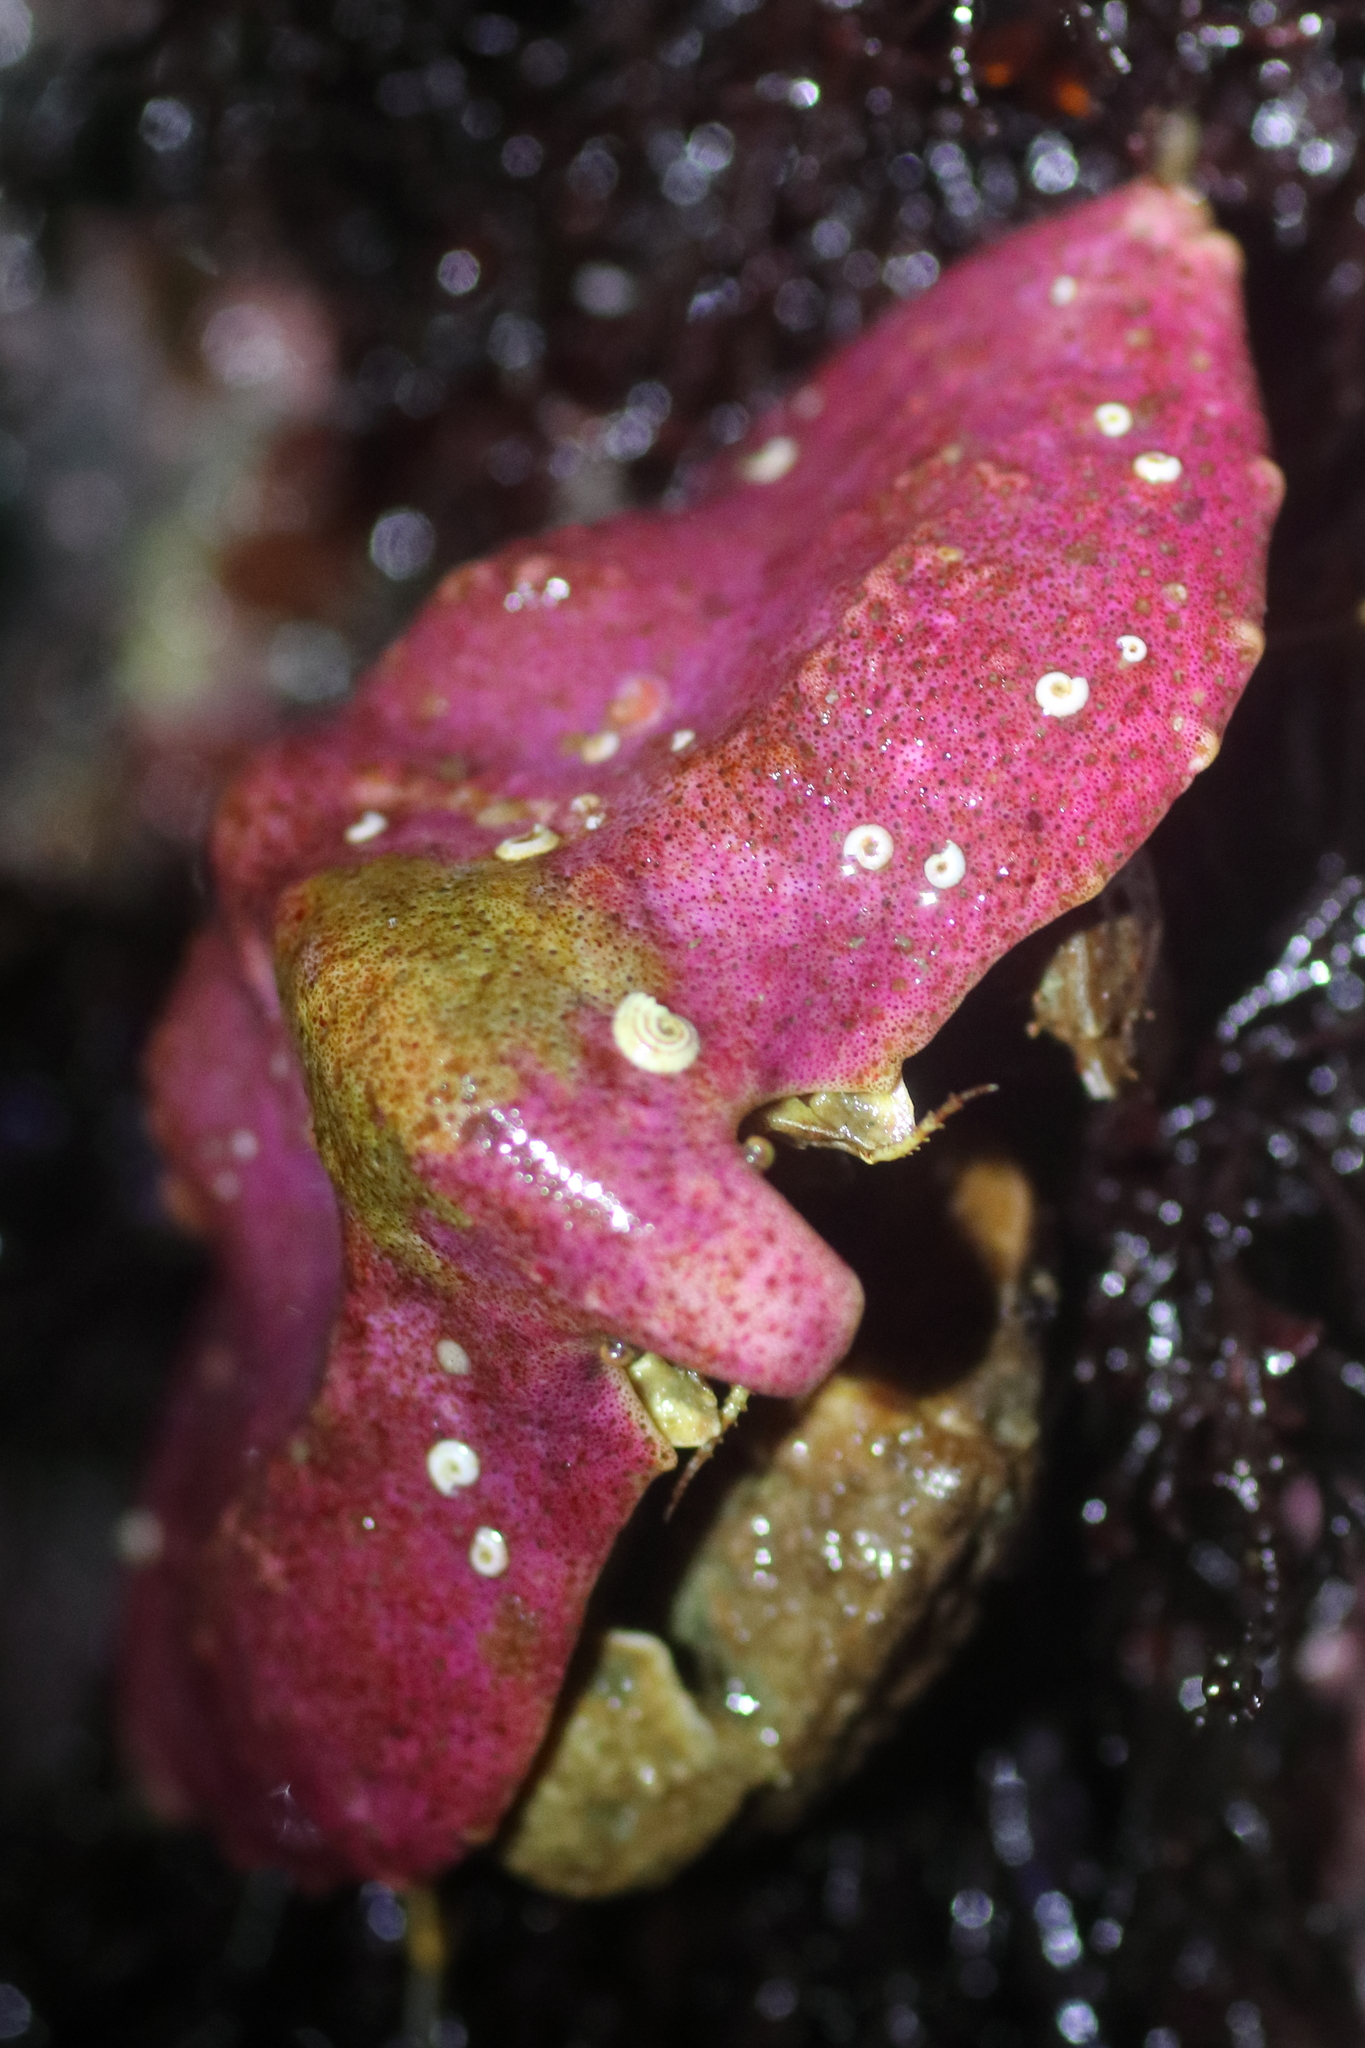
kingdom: Animalia
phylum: Arthropoda
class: Malacostraca
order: Decapoda
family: Lithodidae
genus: Cryptolithodes
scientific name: Cryptolithodes typicus
